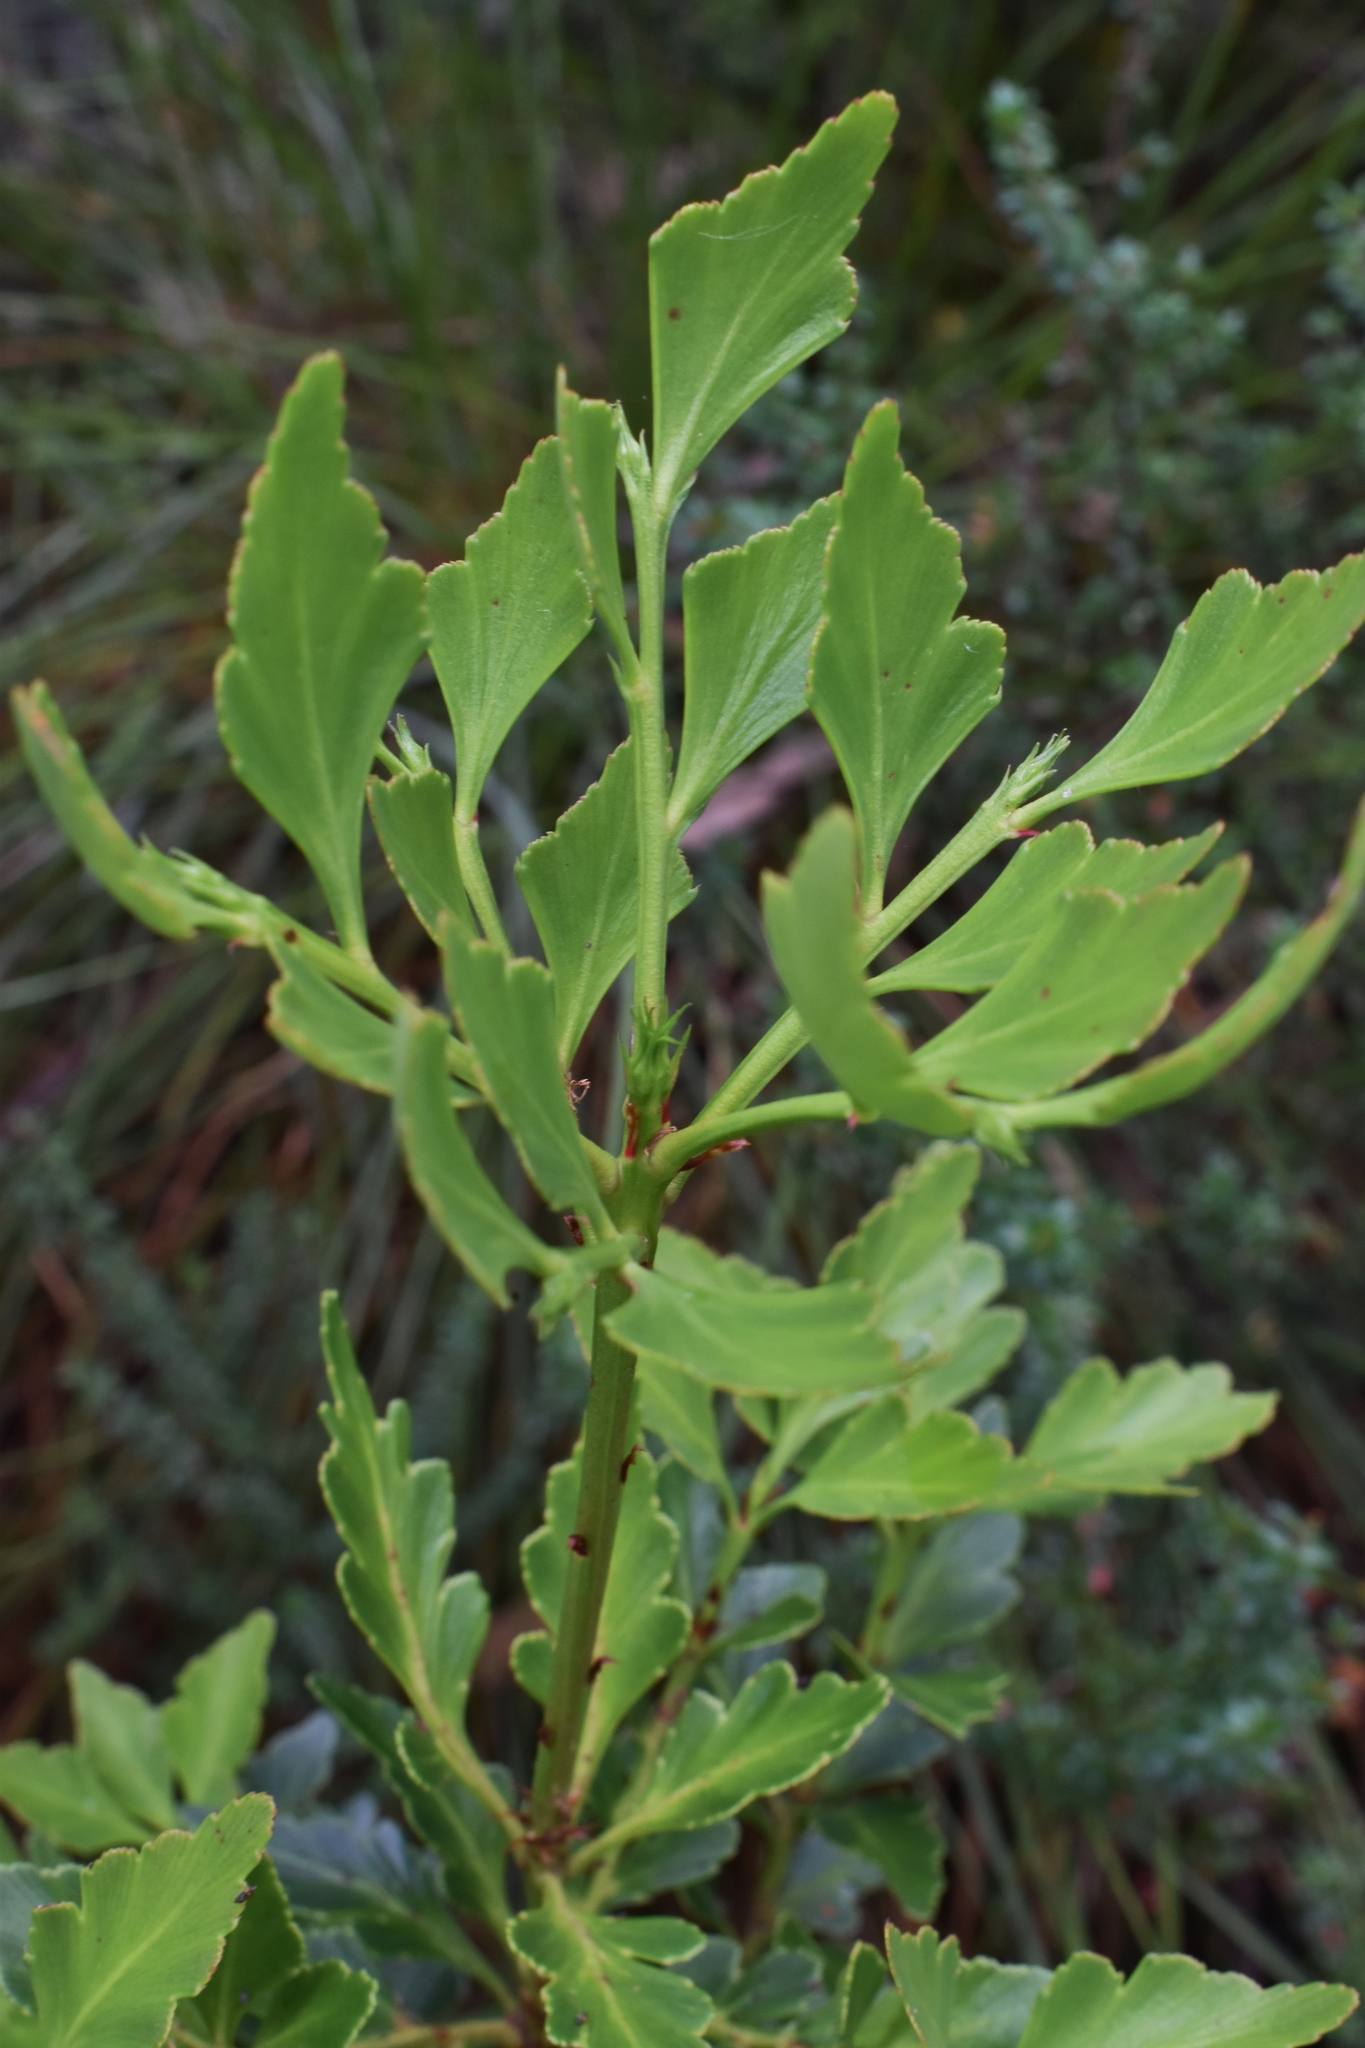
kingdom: Plantae
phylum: Tracheophyta
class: Pinopsida
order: Pinales
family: Phyllocladaceae
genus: Phyllocladus
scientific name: Phyllocladus aspleniifolius
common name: Celery-top pine
